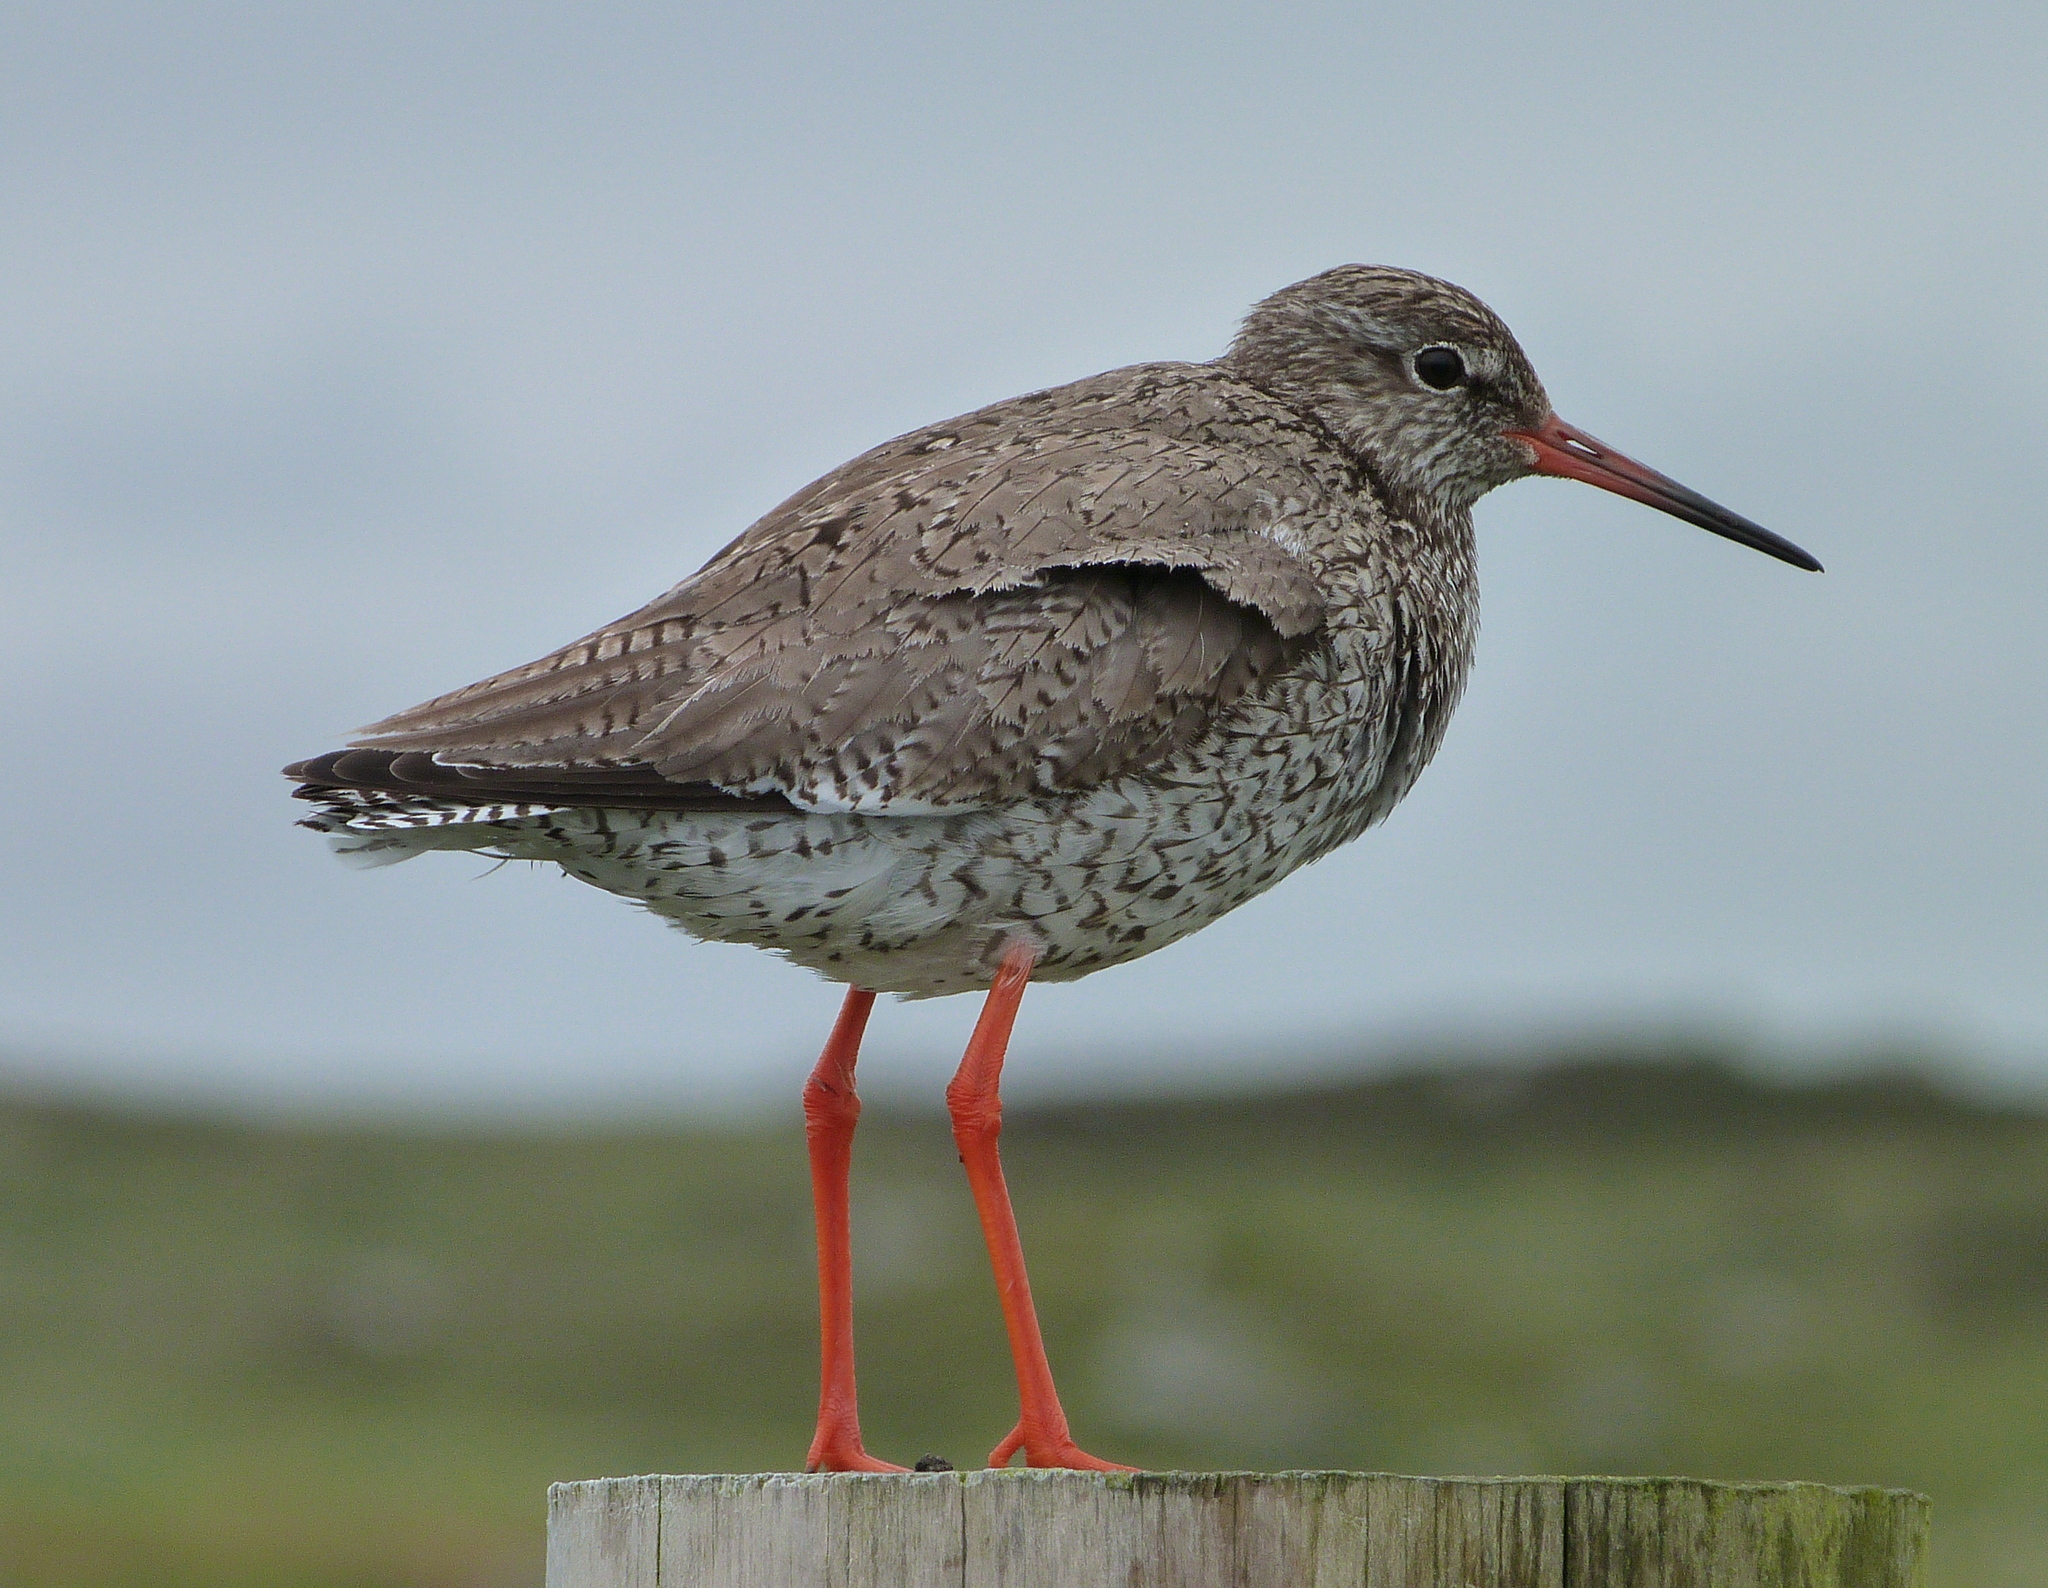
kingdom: Animalia
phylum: Chordata
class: Aves
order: Charadriiformes
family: Scolopacidae
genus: Tringa
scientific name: Tringa totanus
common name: Common redshank
